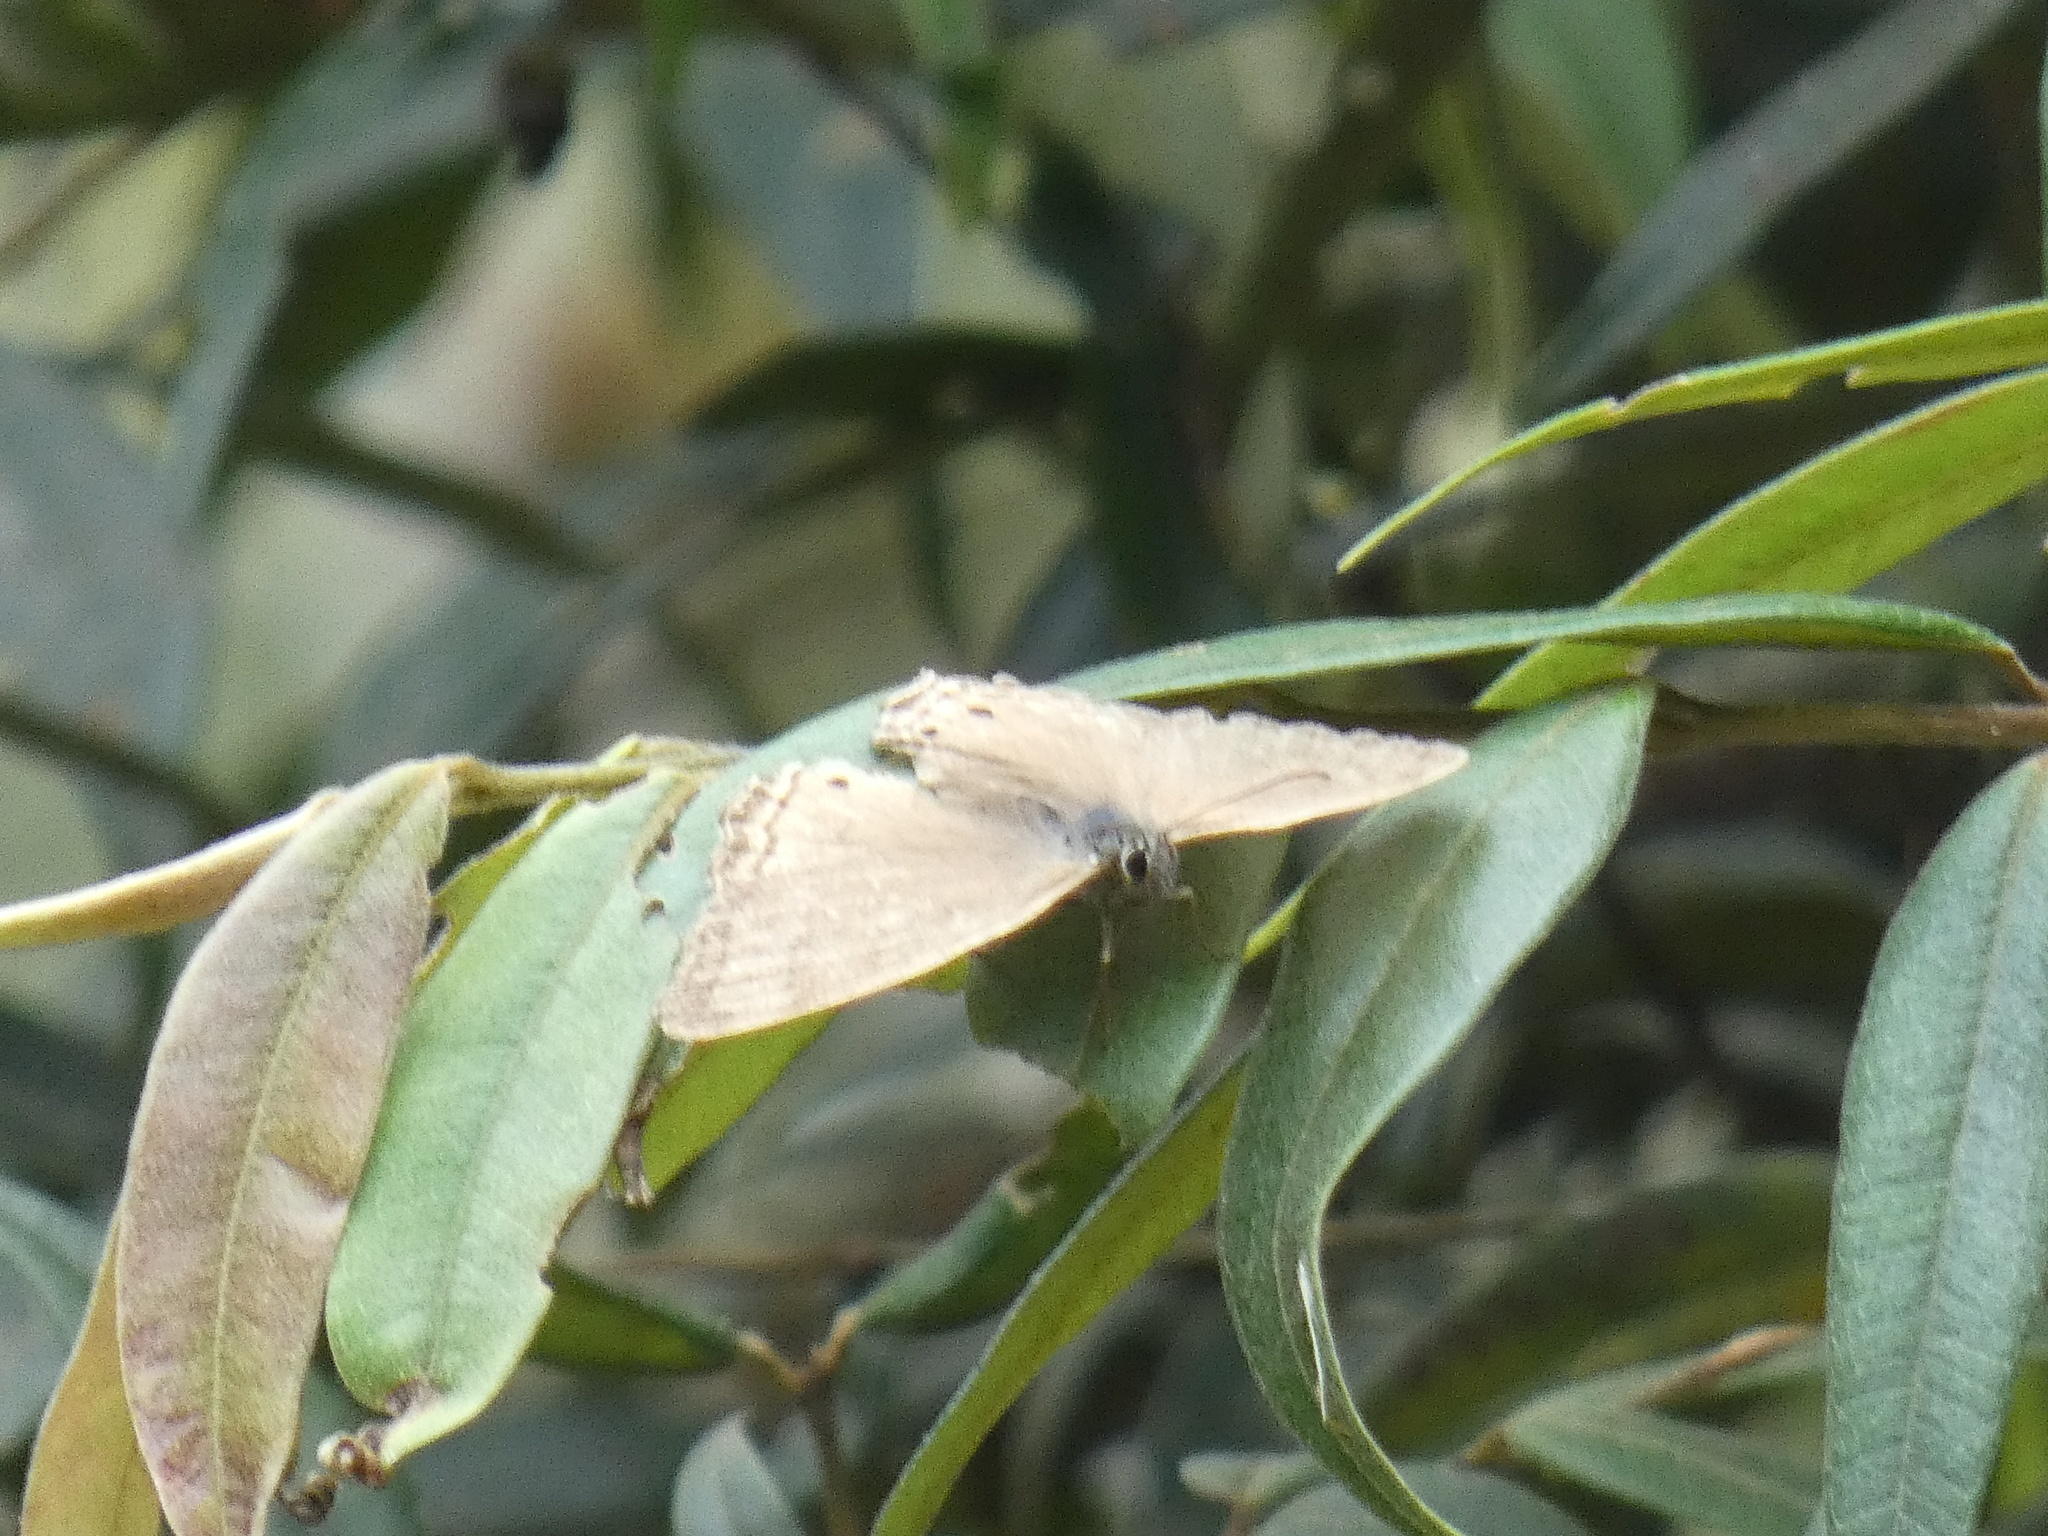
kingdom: Animalia
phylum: Arthropoda
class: Insecta
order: Lepidoptera
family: Nymphalidae
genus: Euptychiina
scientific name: Euptychiina
